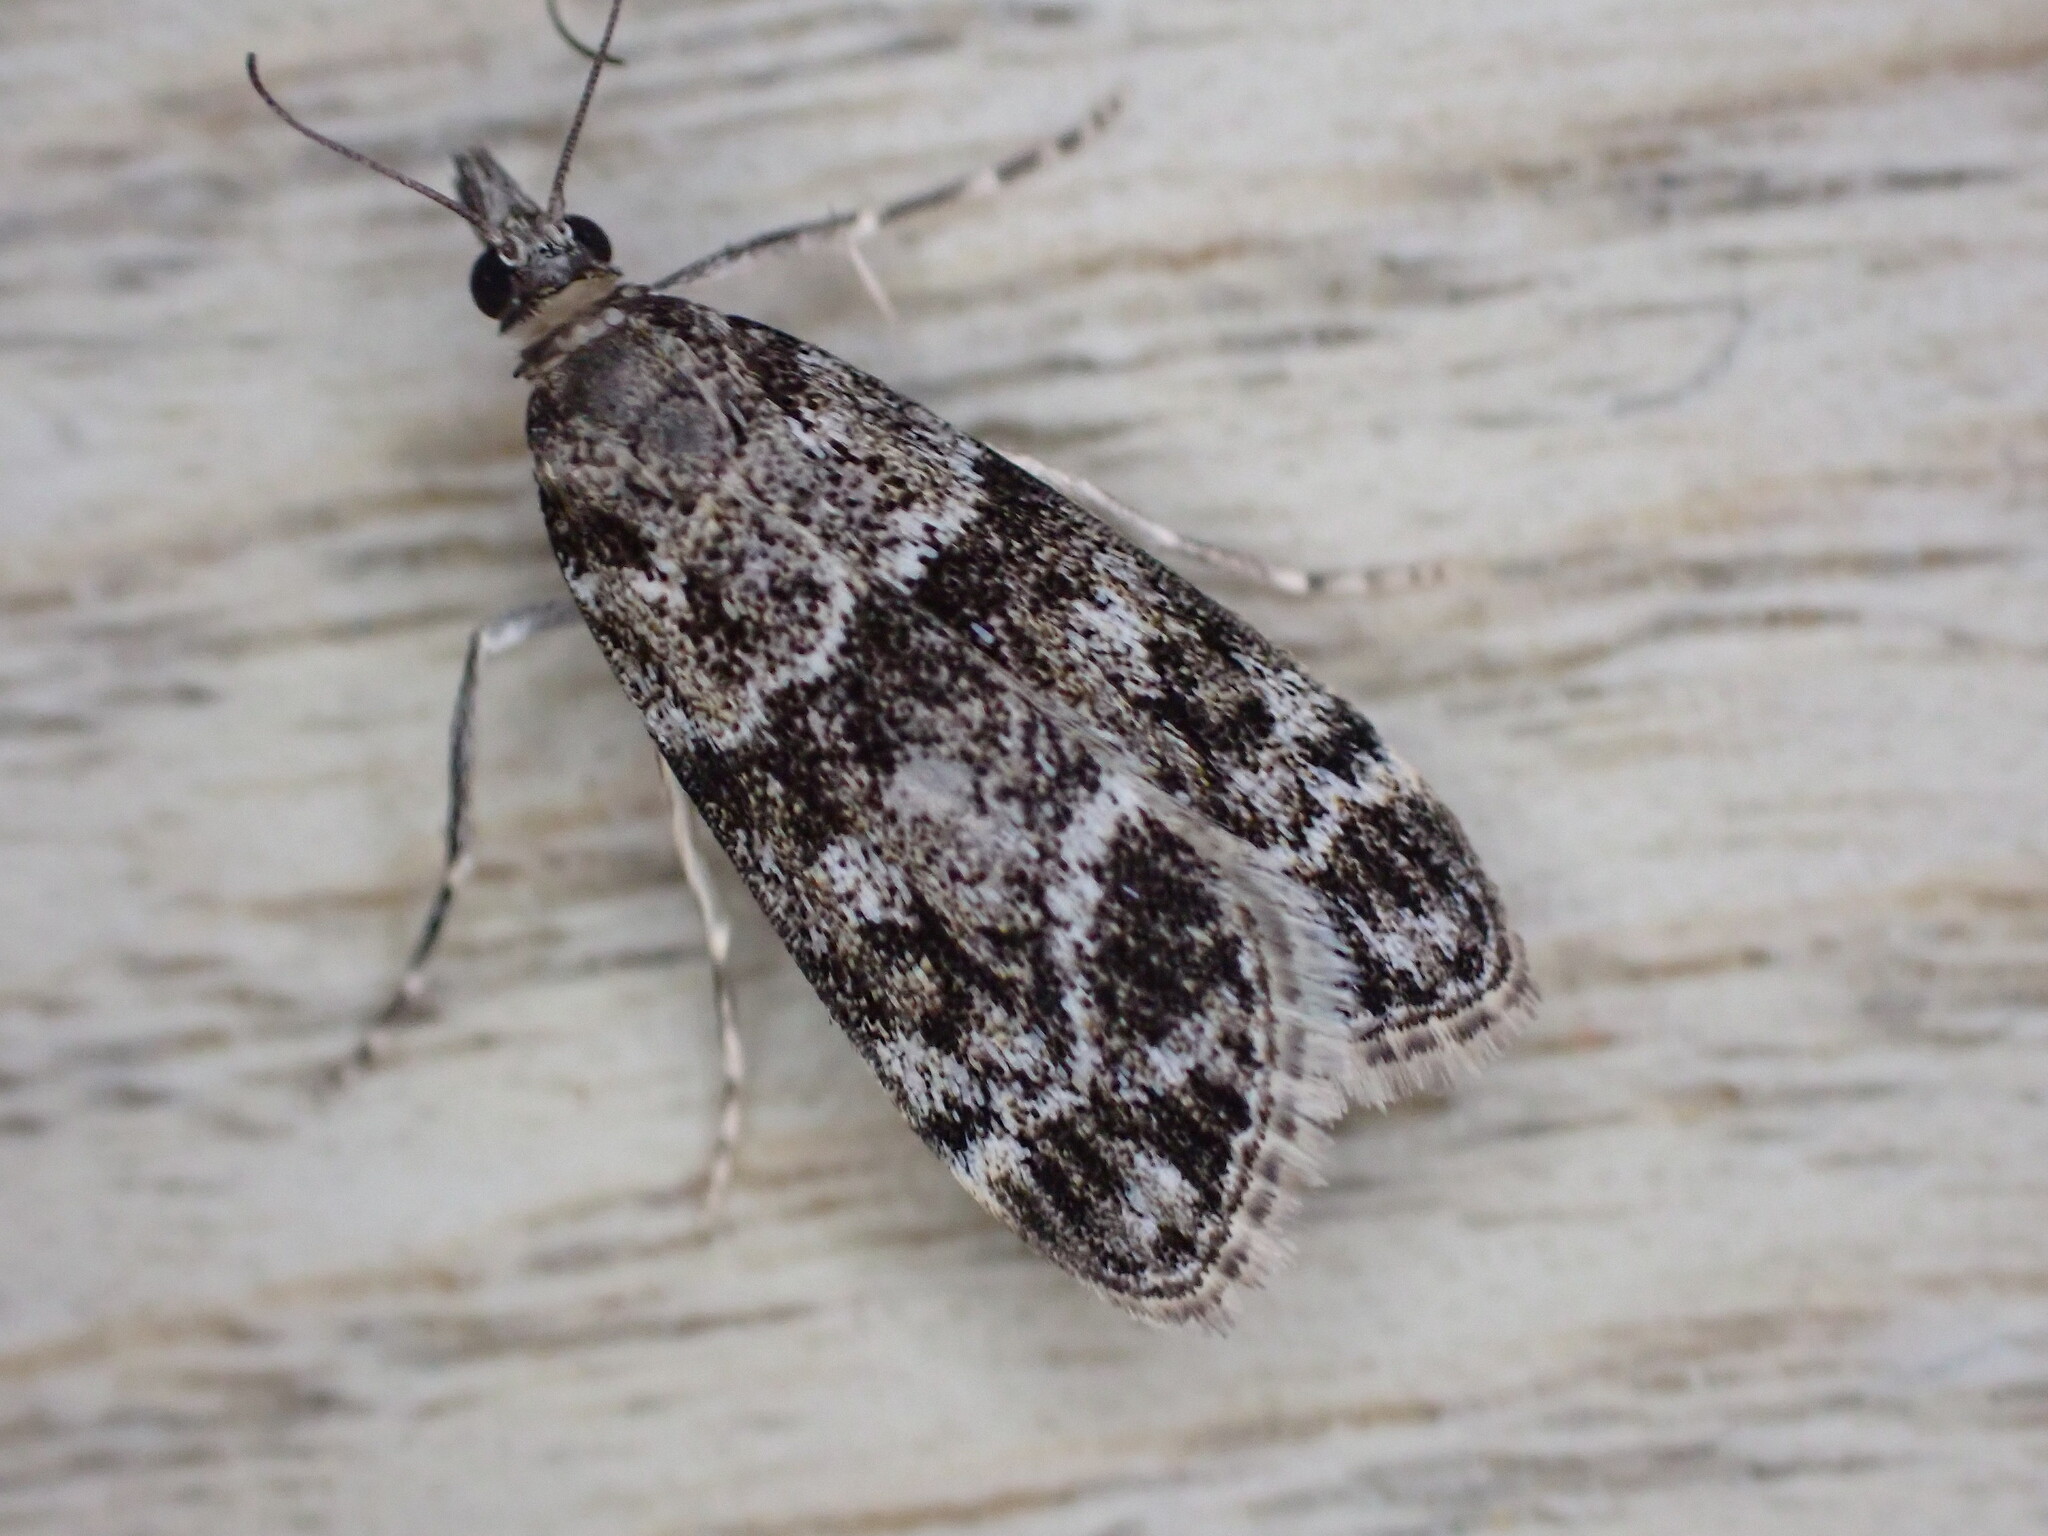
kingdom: Animalia
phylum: Arthropoda
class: Insecta
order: Lepidoptera
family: Crambidae
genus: Eudonia
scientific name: Eudonia mercurella
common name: Small grey
